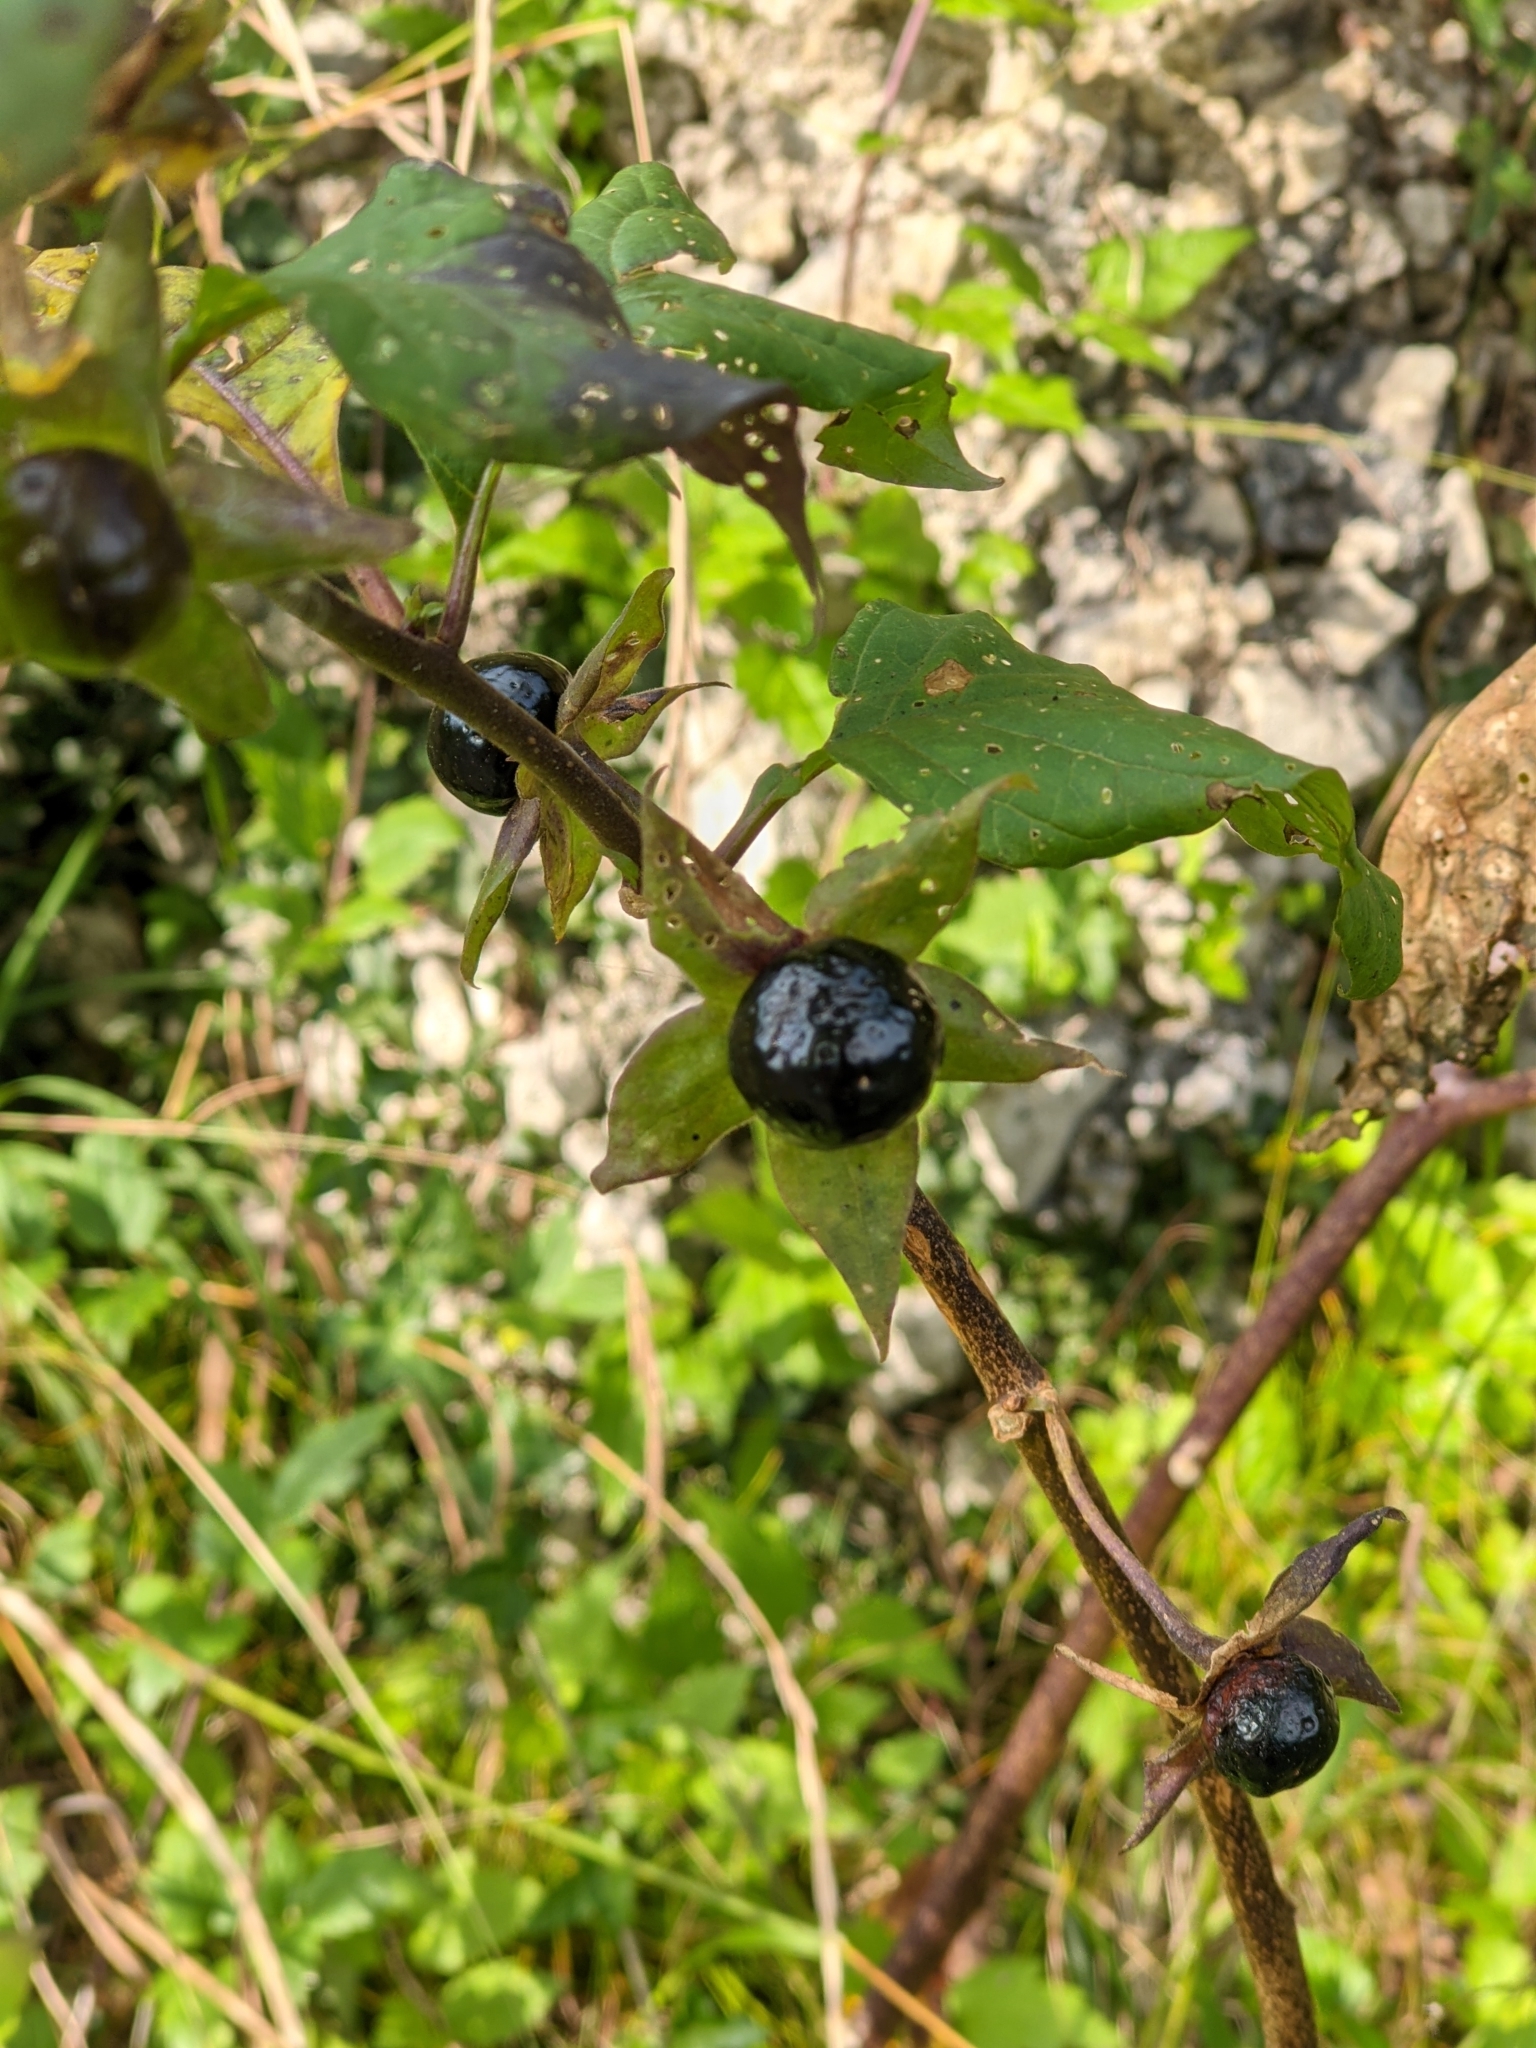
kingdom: Plantae
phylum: Tracheophyta
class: Magnoliopsida
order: Solanales
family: Solanaceae
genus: Atropa
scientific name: Atropa belladonna
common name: Deadly nightshade
